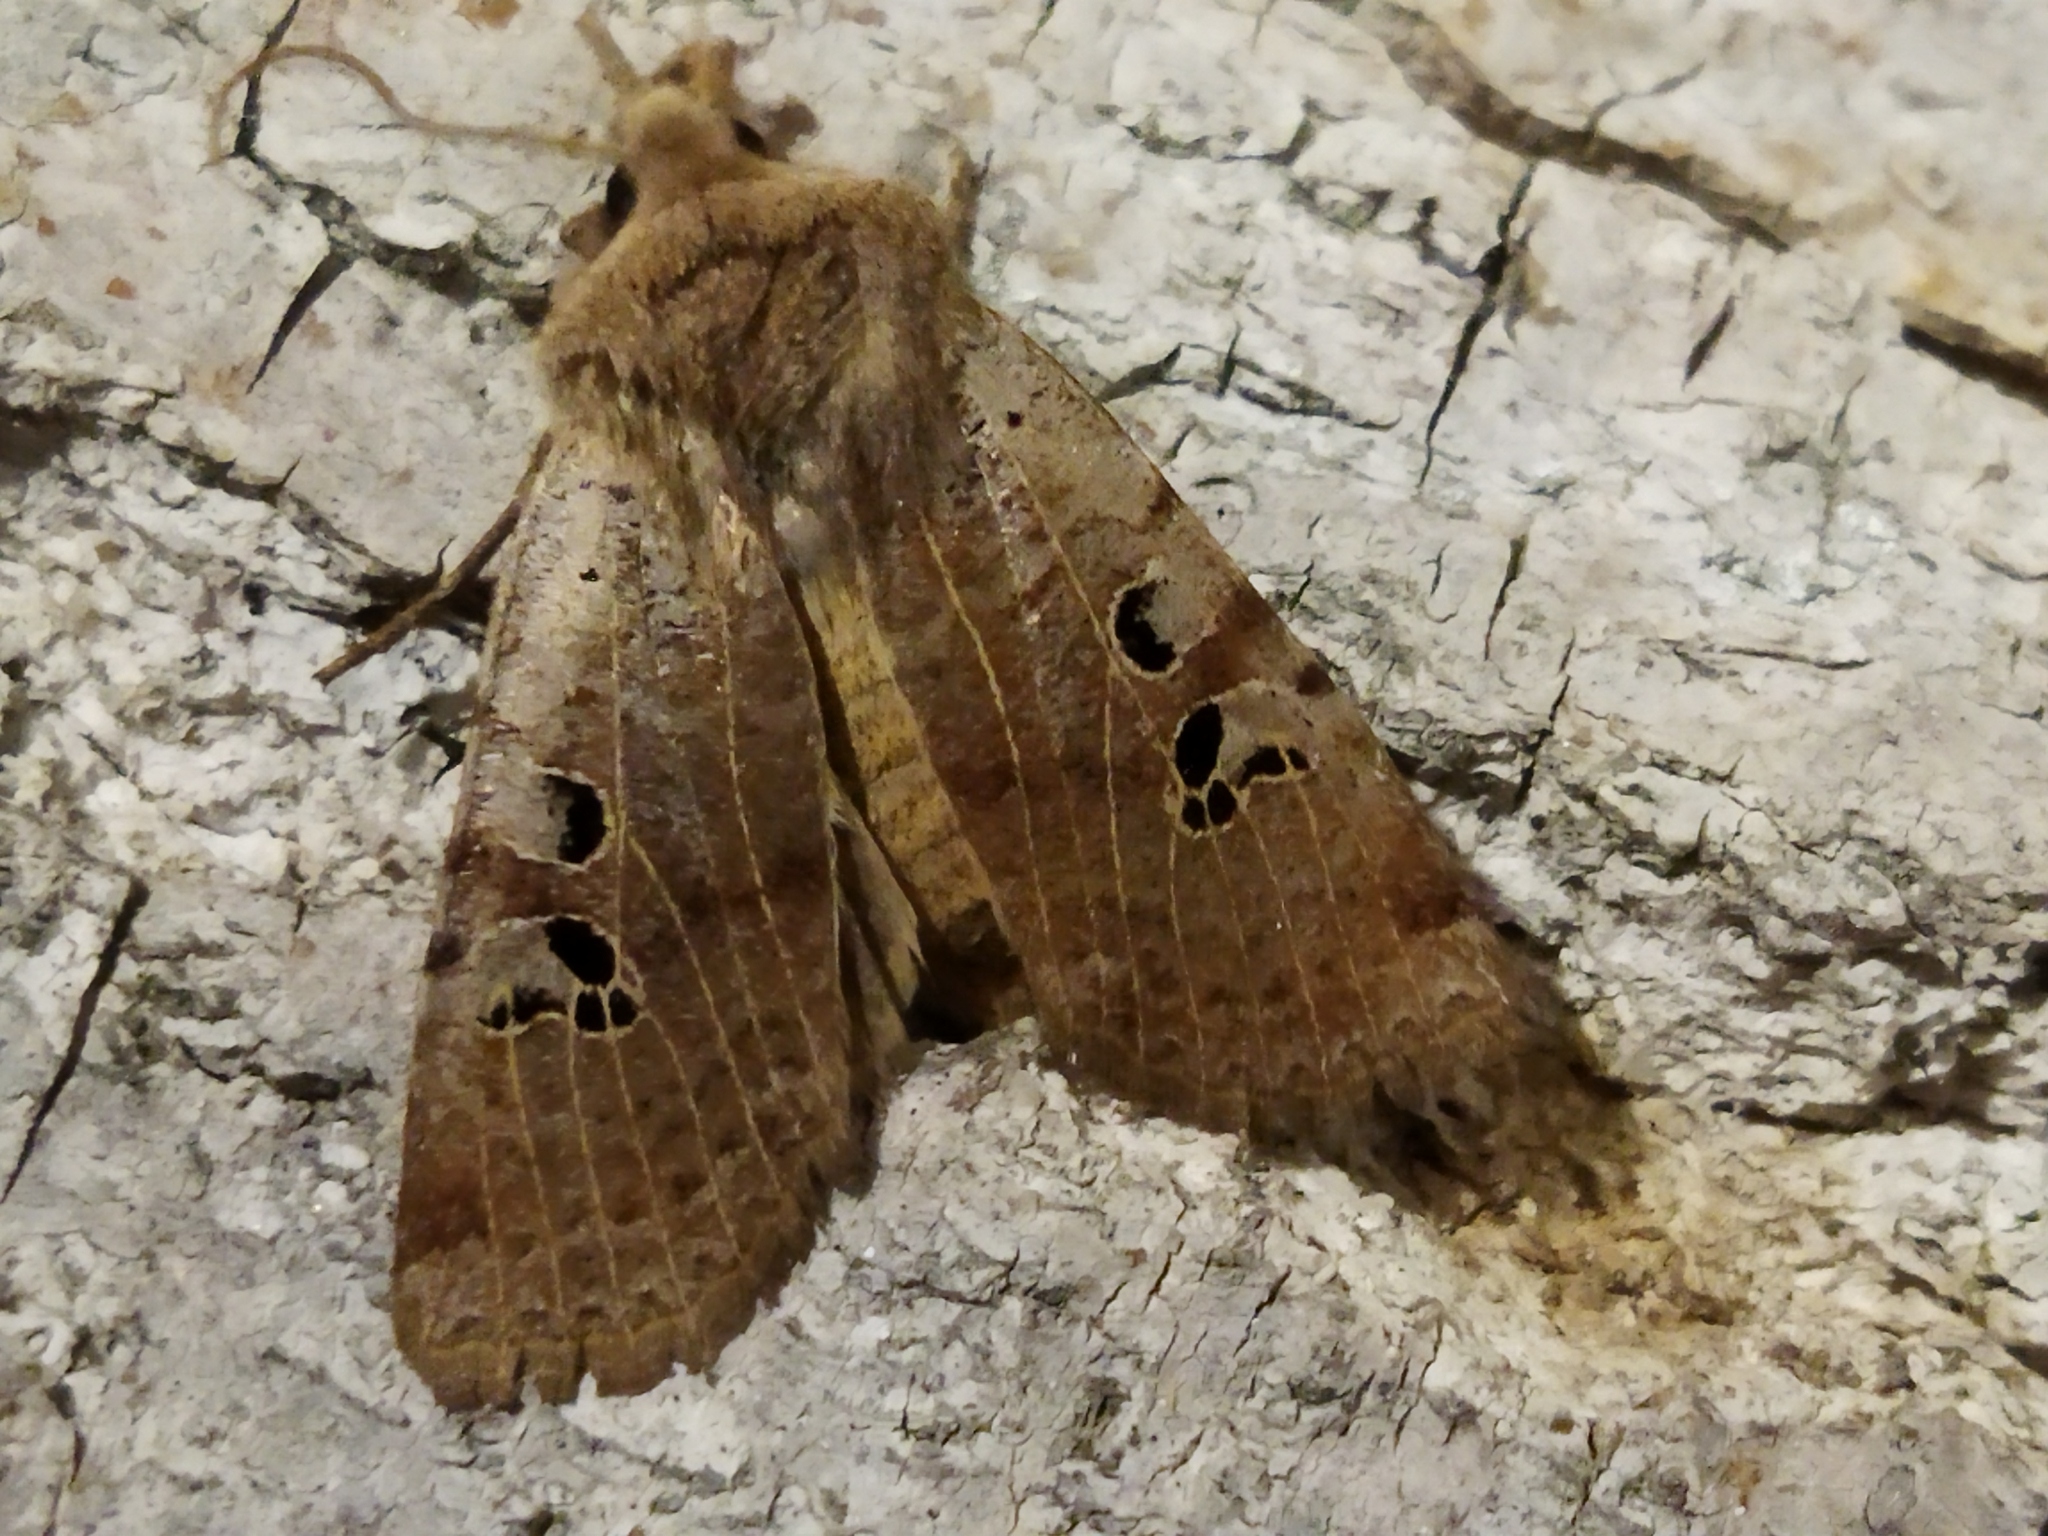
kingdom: Animalia
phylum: Arthropoda
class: Insecta
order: Lepidoptera
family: Noctuidae
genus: Conistra
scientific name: Conistra rubiginosa
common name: Black-spotted chestnut
